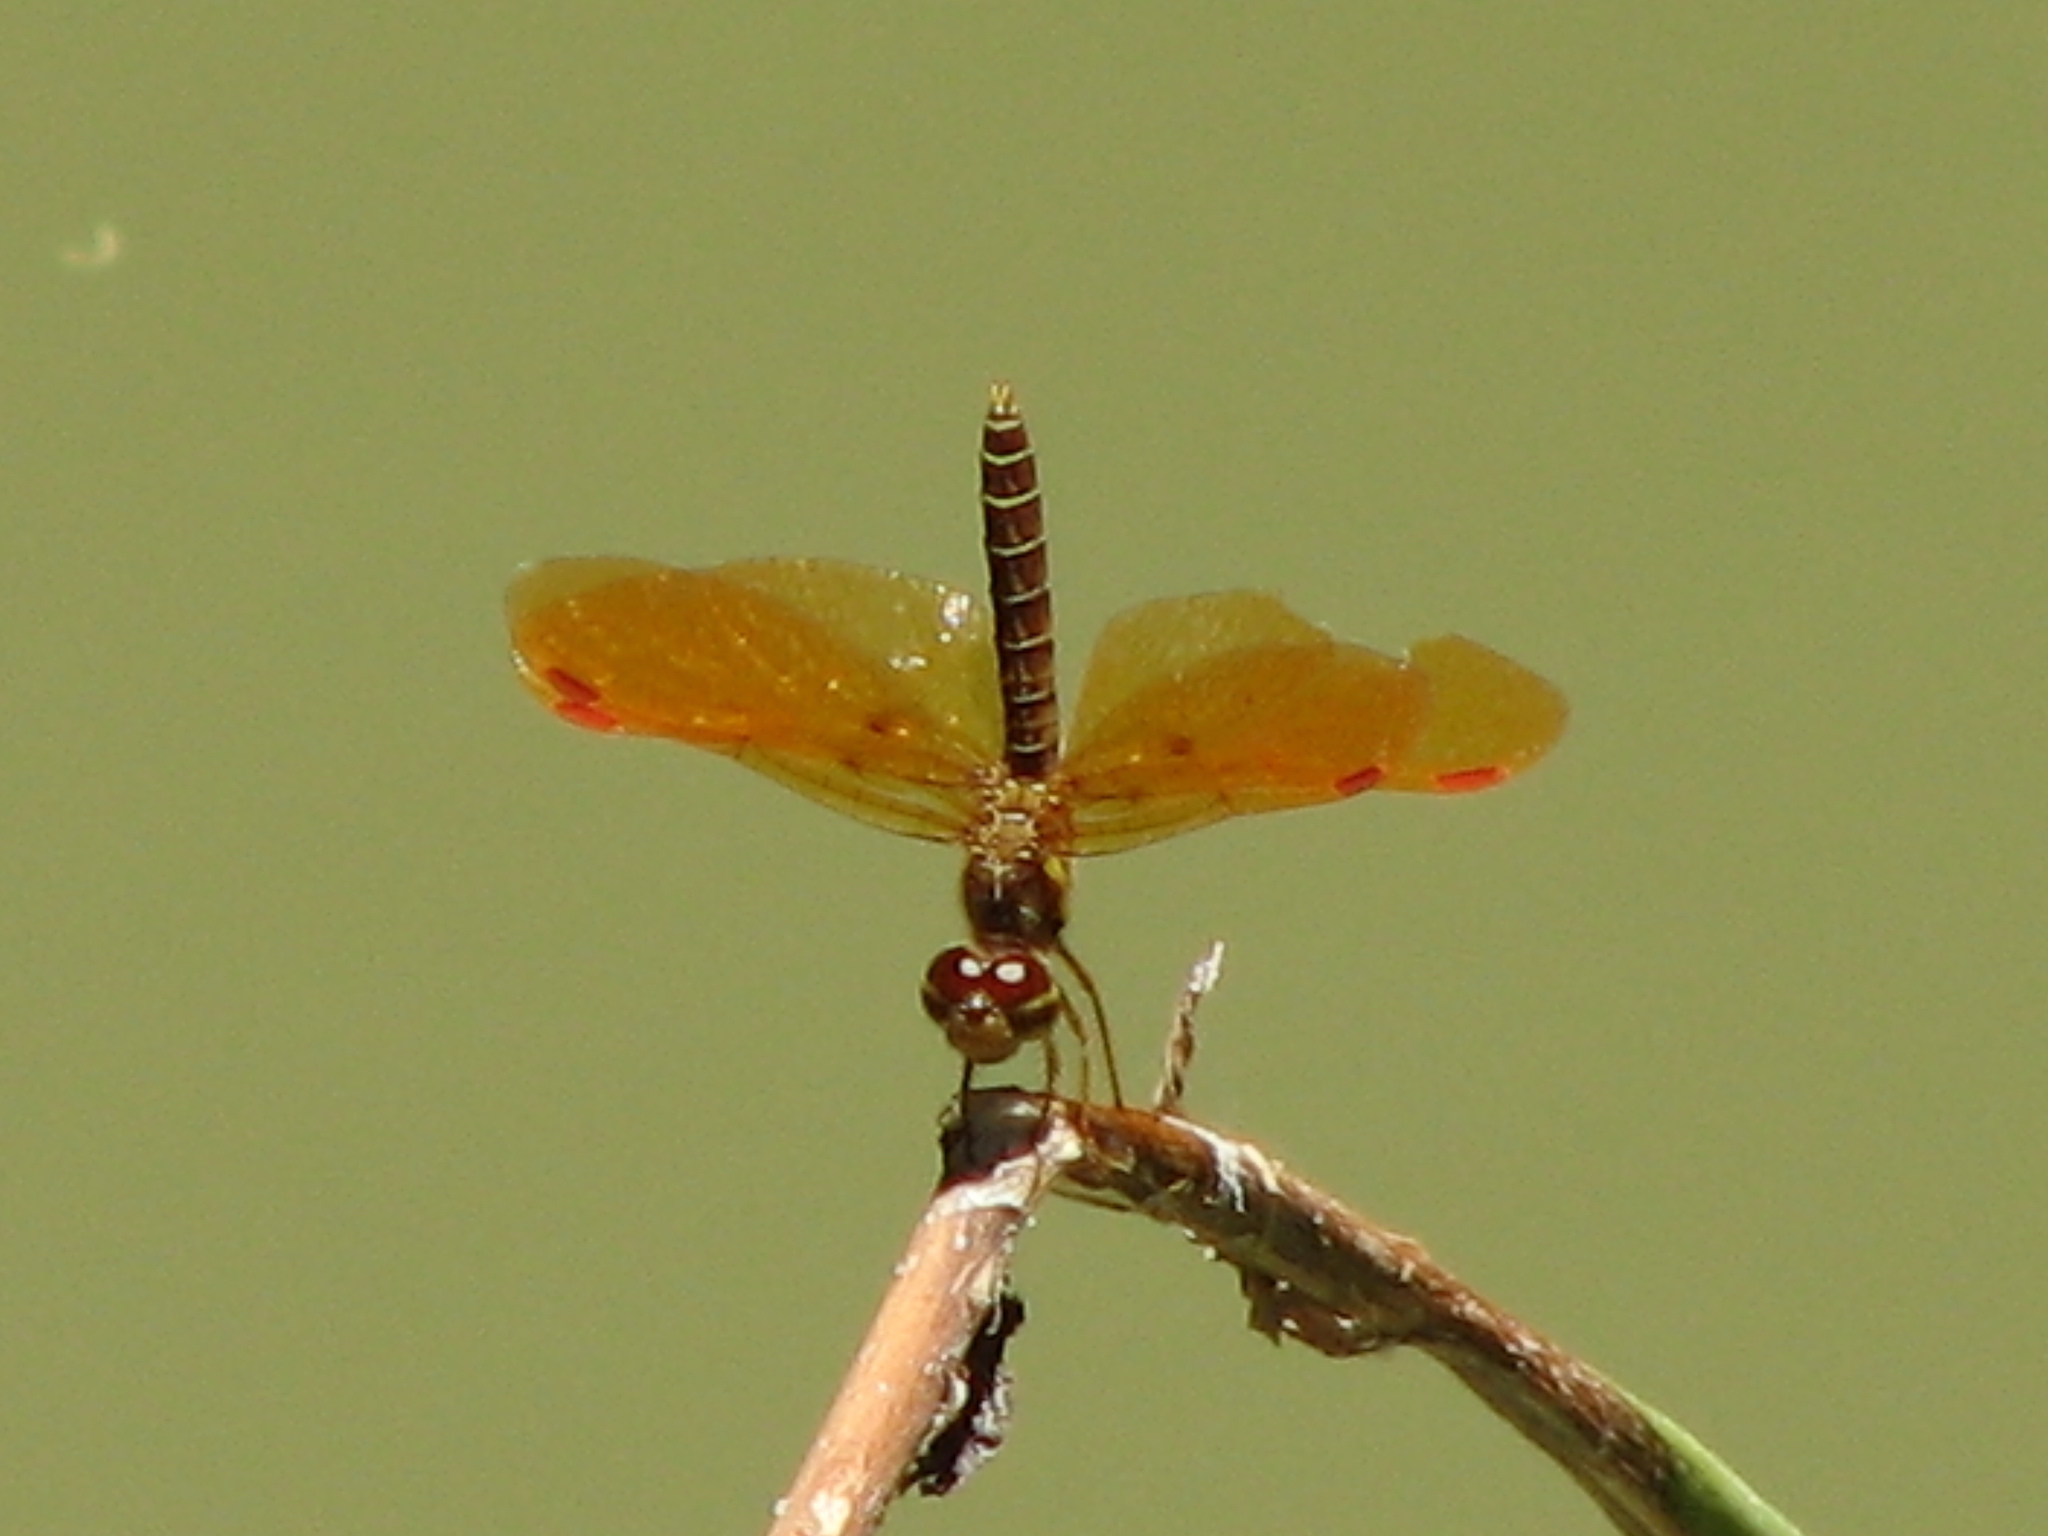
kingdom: Animalia
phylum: Arthropoda
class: Insecta
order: Odonata
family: Libellulidae
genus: Perithemis
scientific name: Perithemis tenera
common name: Eastern amberwing
